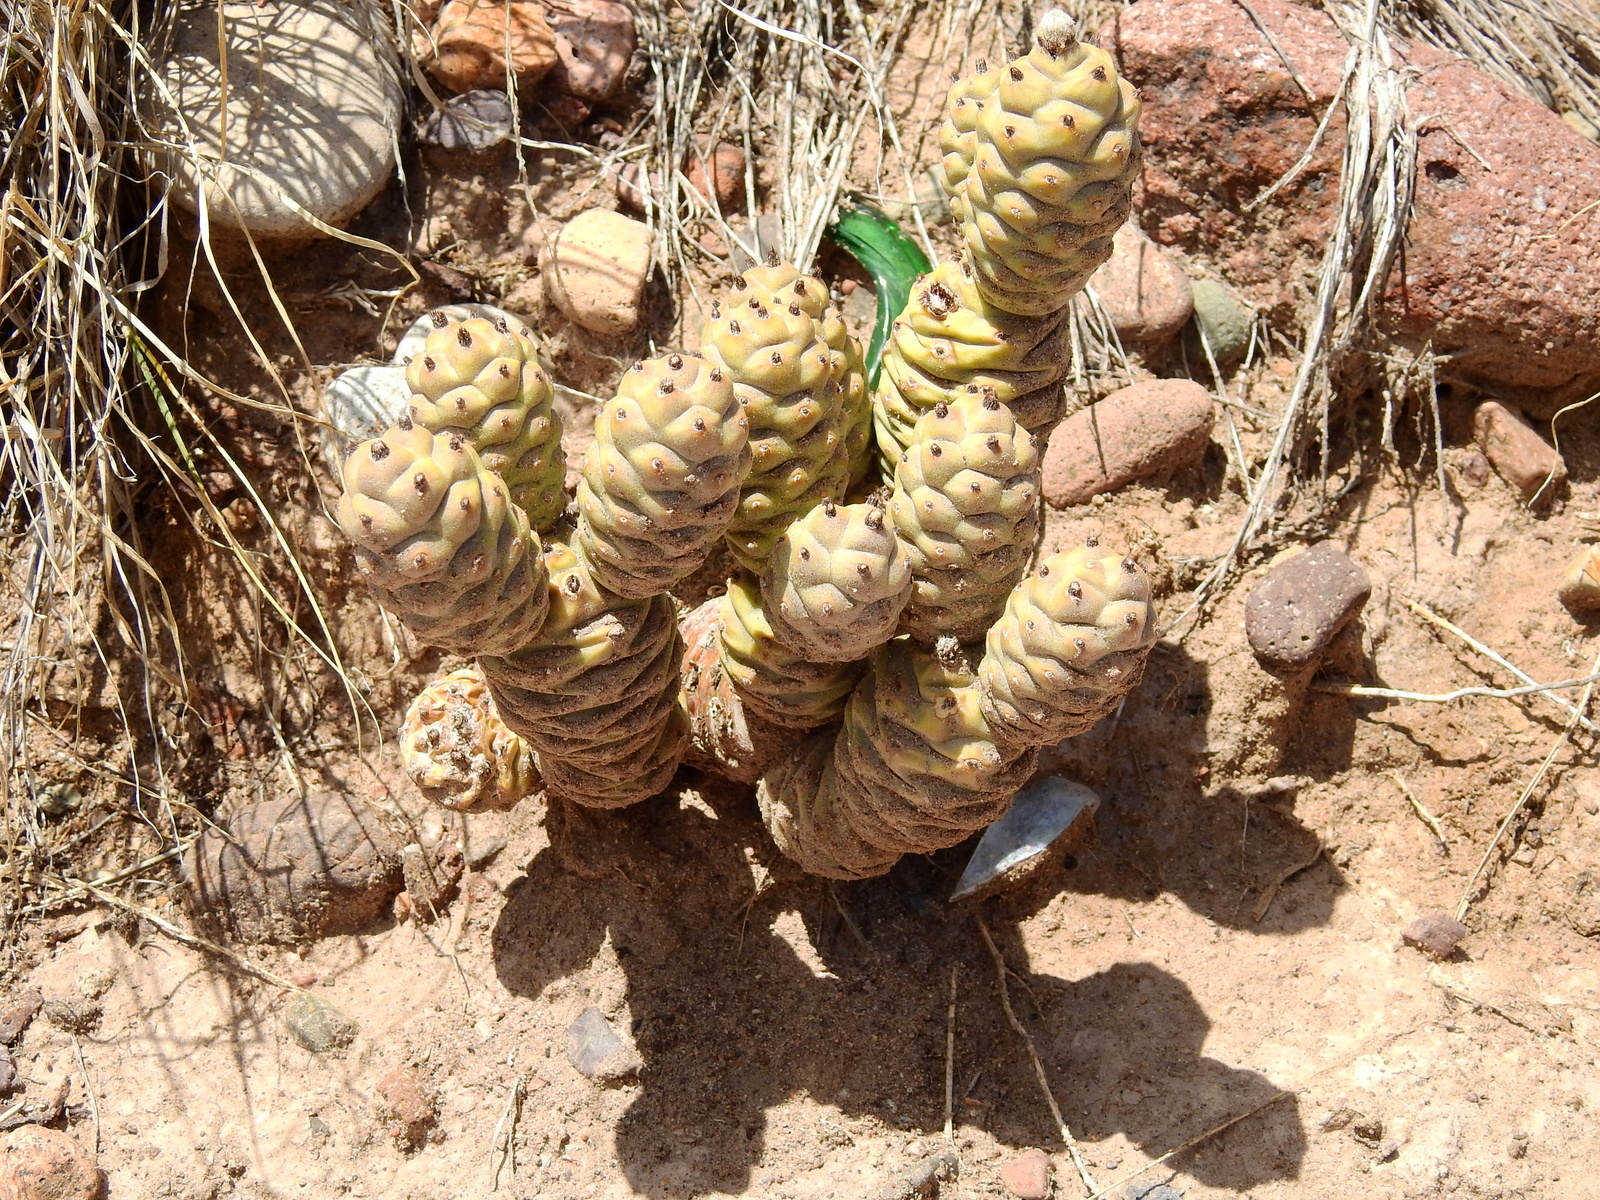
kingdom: Plantae
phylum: Tracheophyta
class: Magnoliopsida
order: Caryophyllales
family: Cactaceae
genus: Tephrocactus
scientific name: Tephrocactus articulatus
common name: Paper cactus
